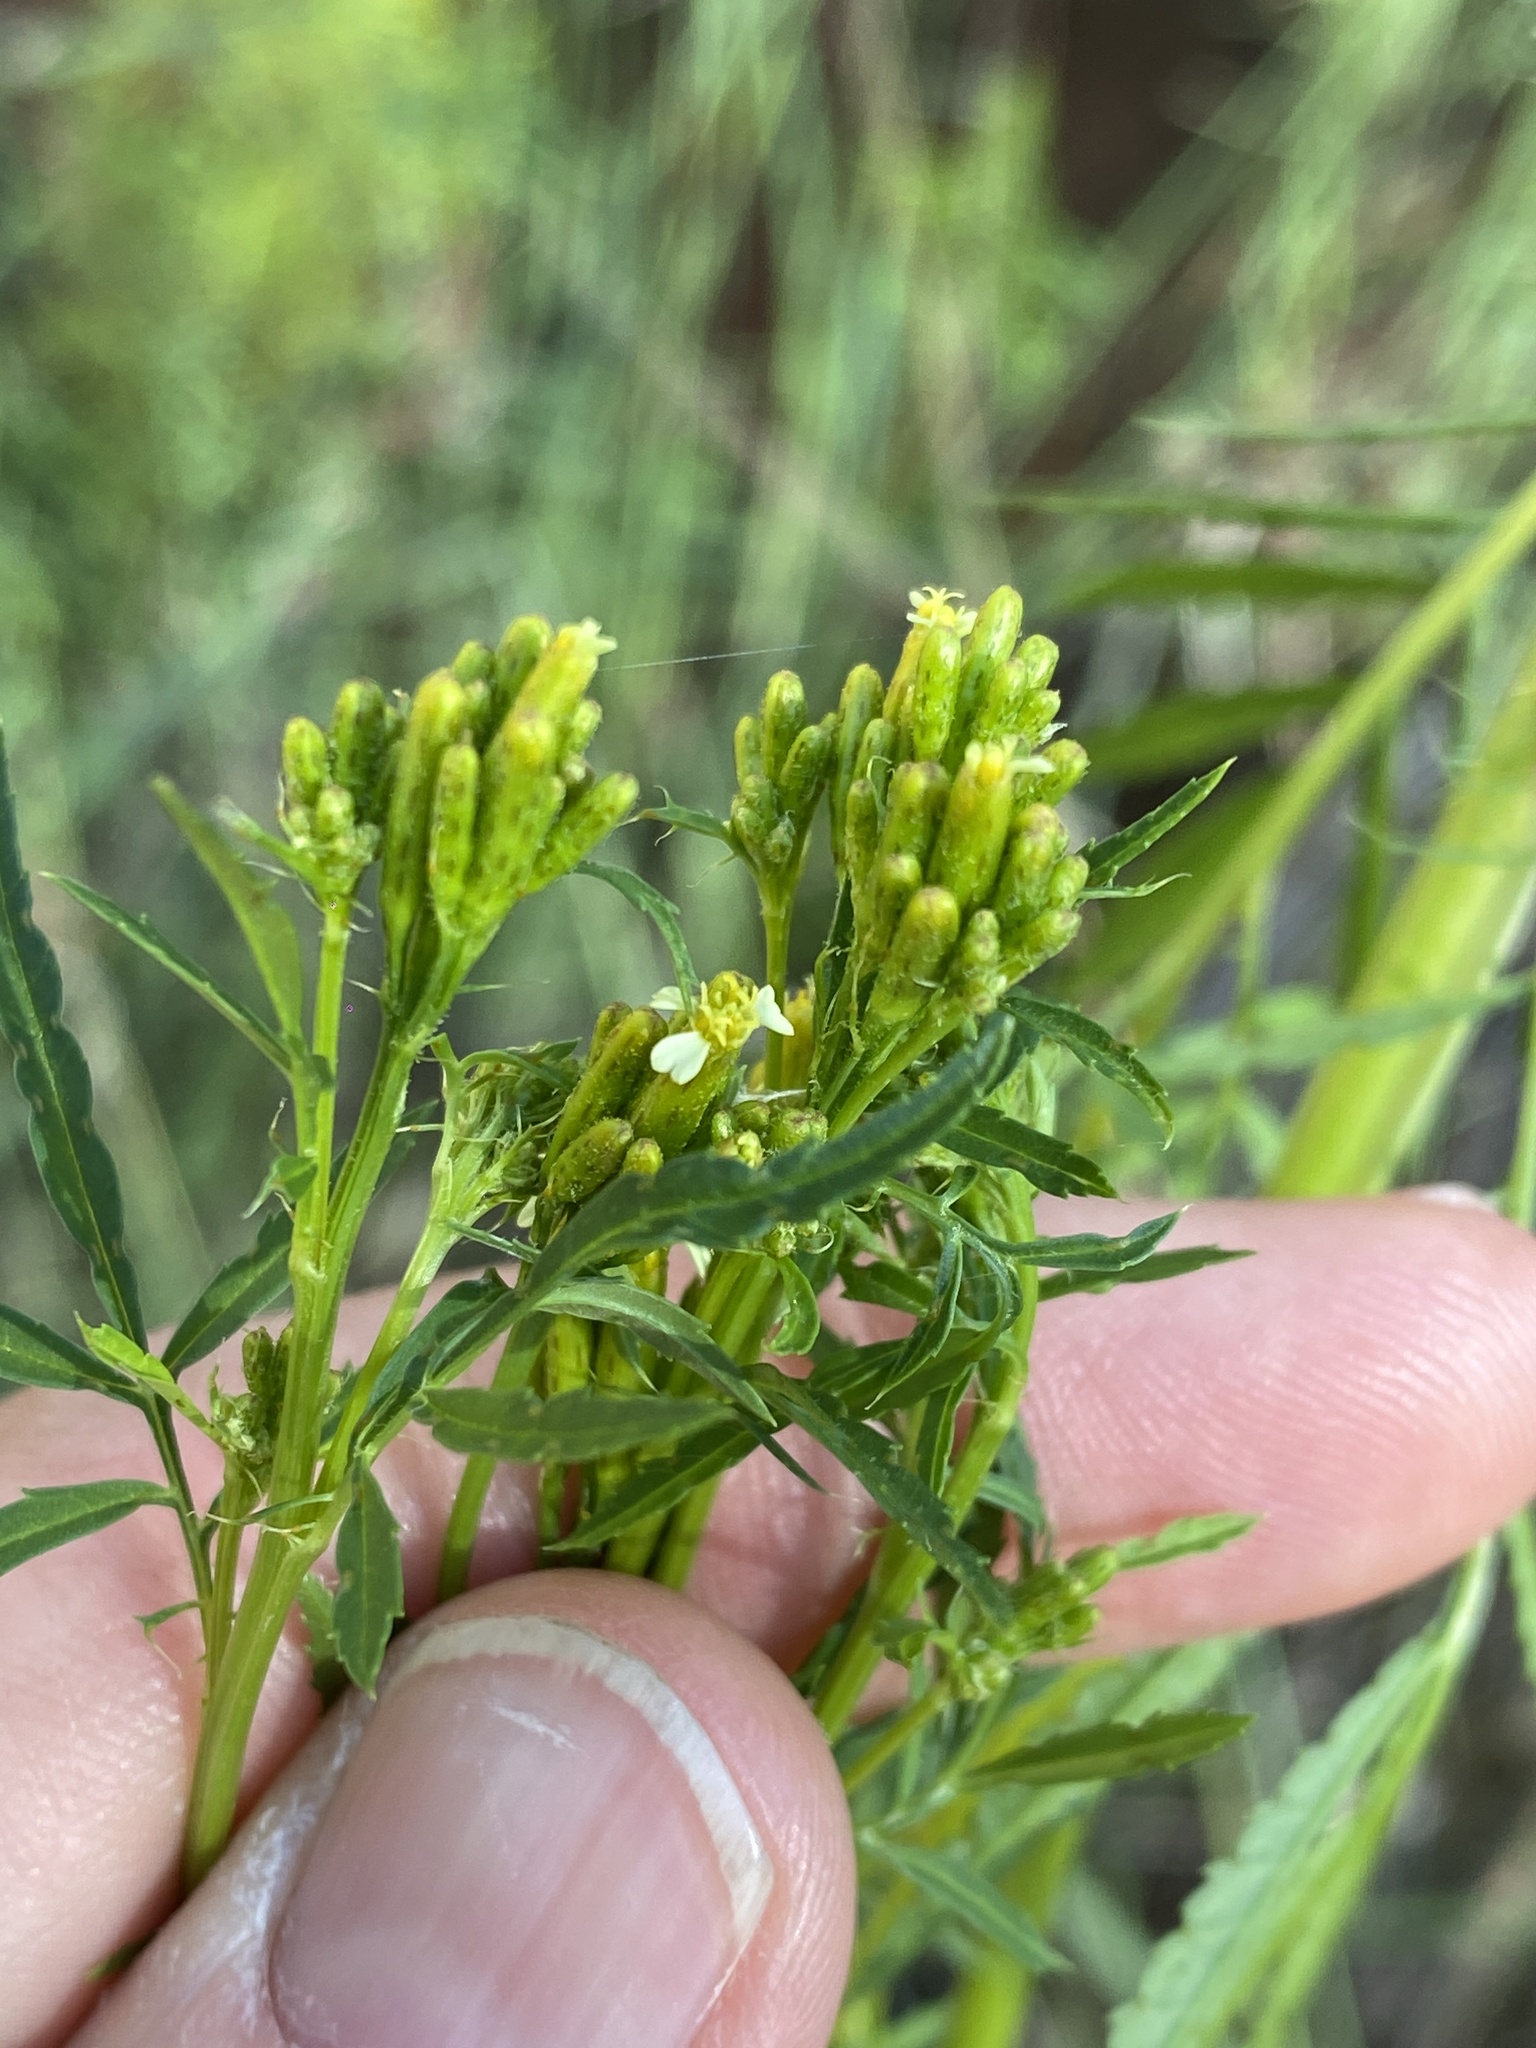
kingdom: Plantae
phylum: Tracheophyta
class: Magnoliopsida
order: Asterales
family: Asteraceae
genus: Tagetes
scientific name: Tagetes minuta
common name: Muster john henry
